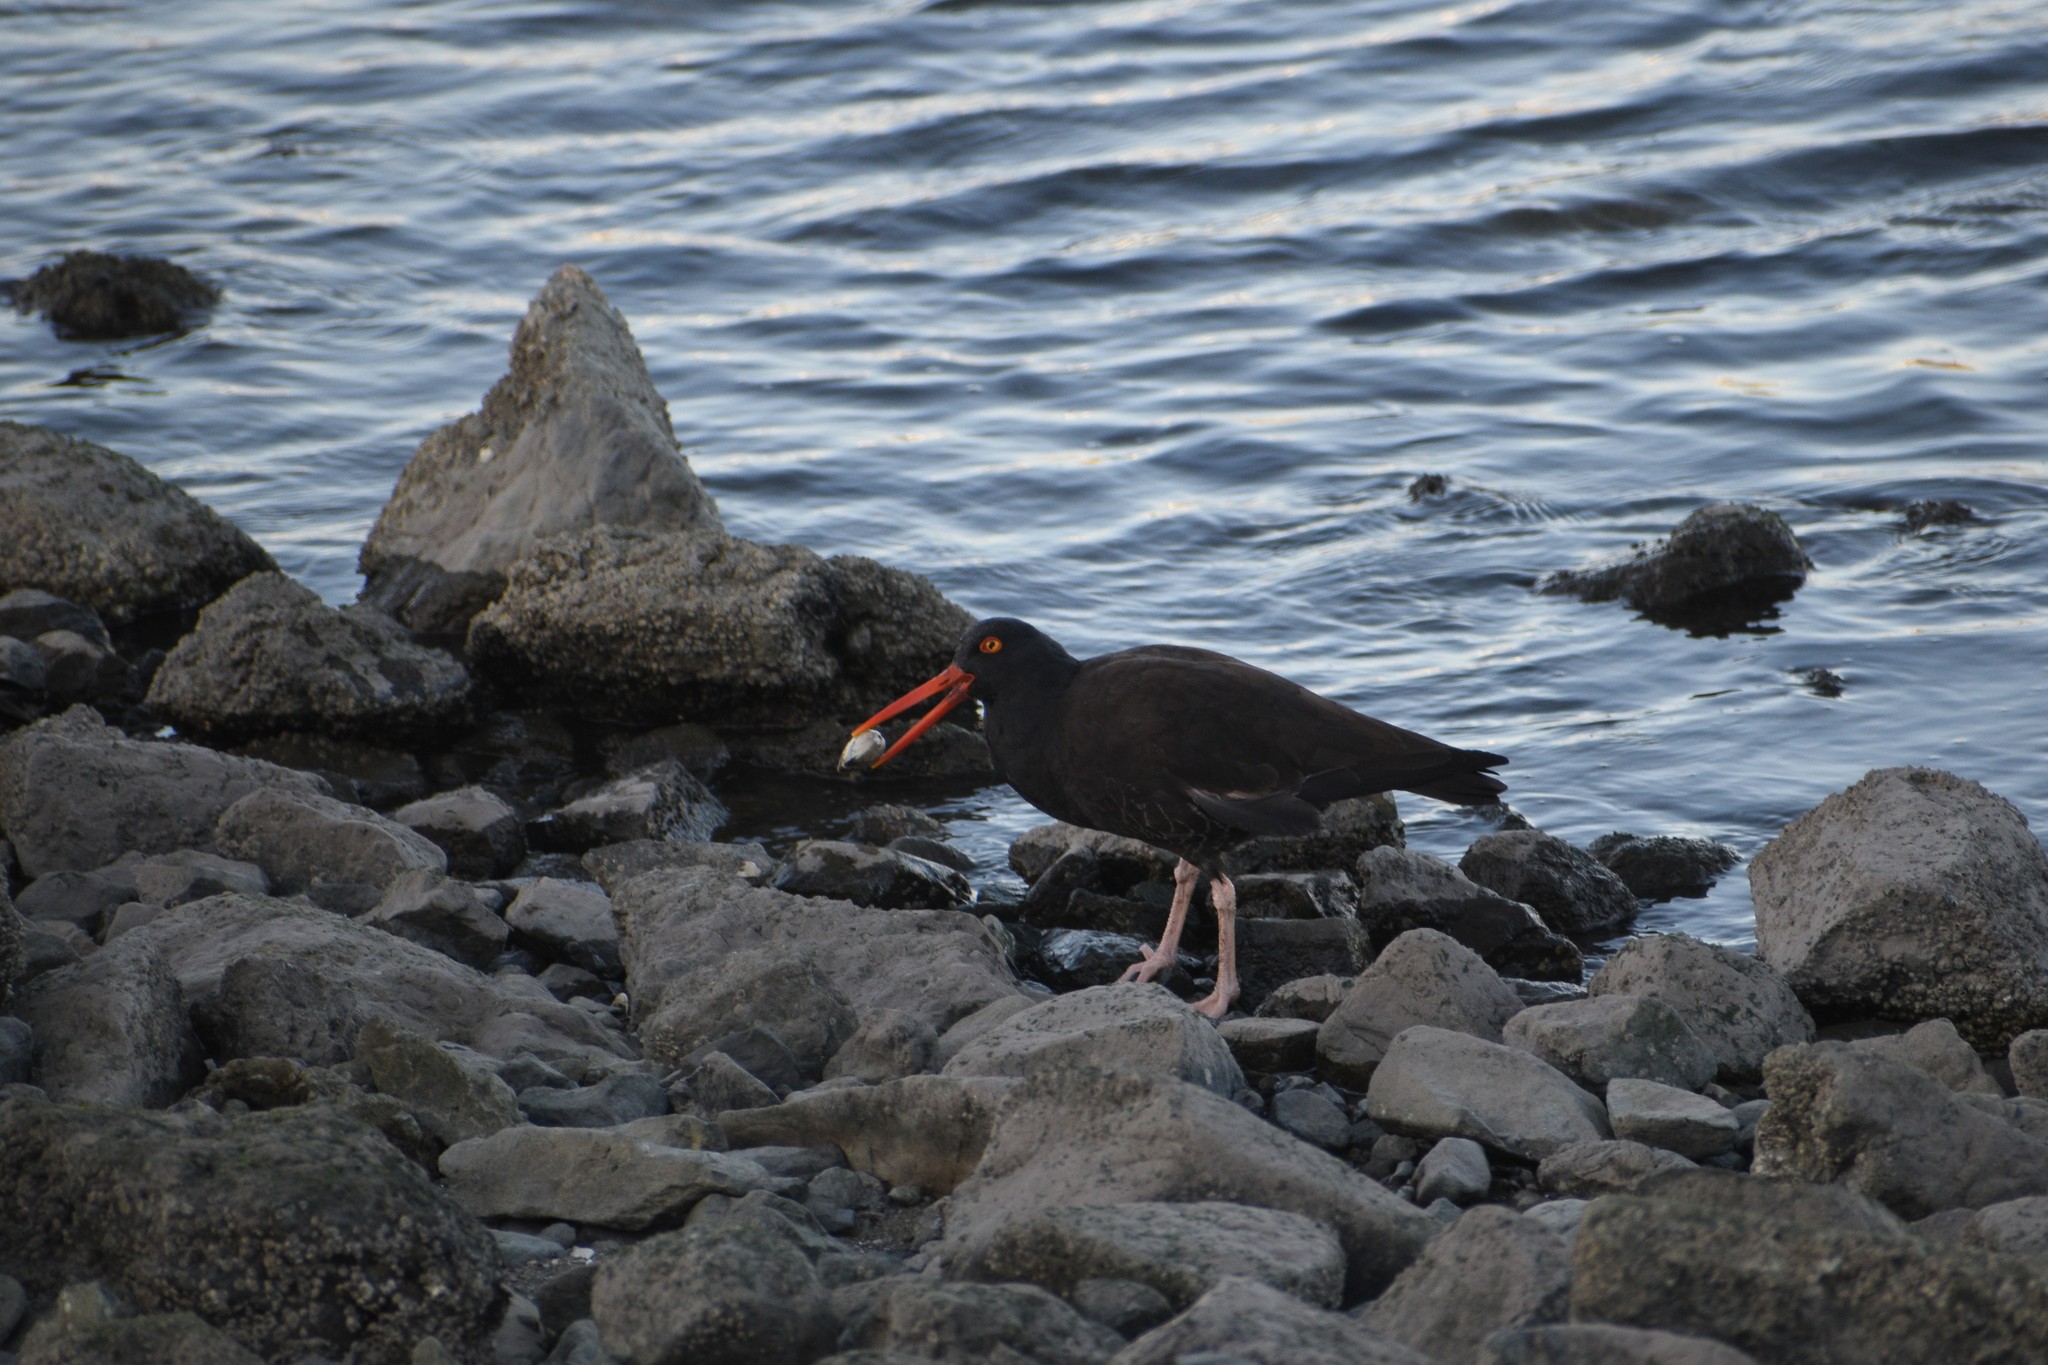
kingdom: Animalia
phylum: Chordata
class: Aves
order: Charadriiformes
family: Haematopodidae
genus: Haematopus
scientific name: Haematopus bachmani
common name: Black oystercatcher
